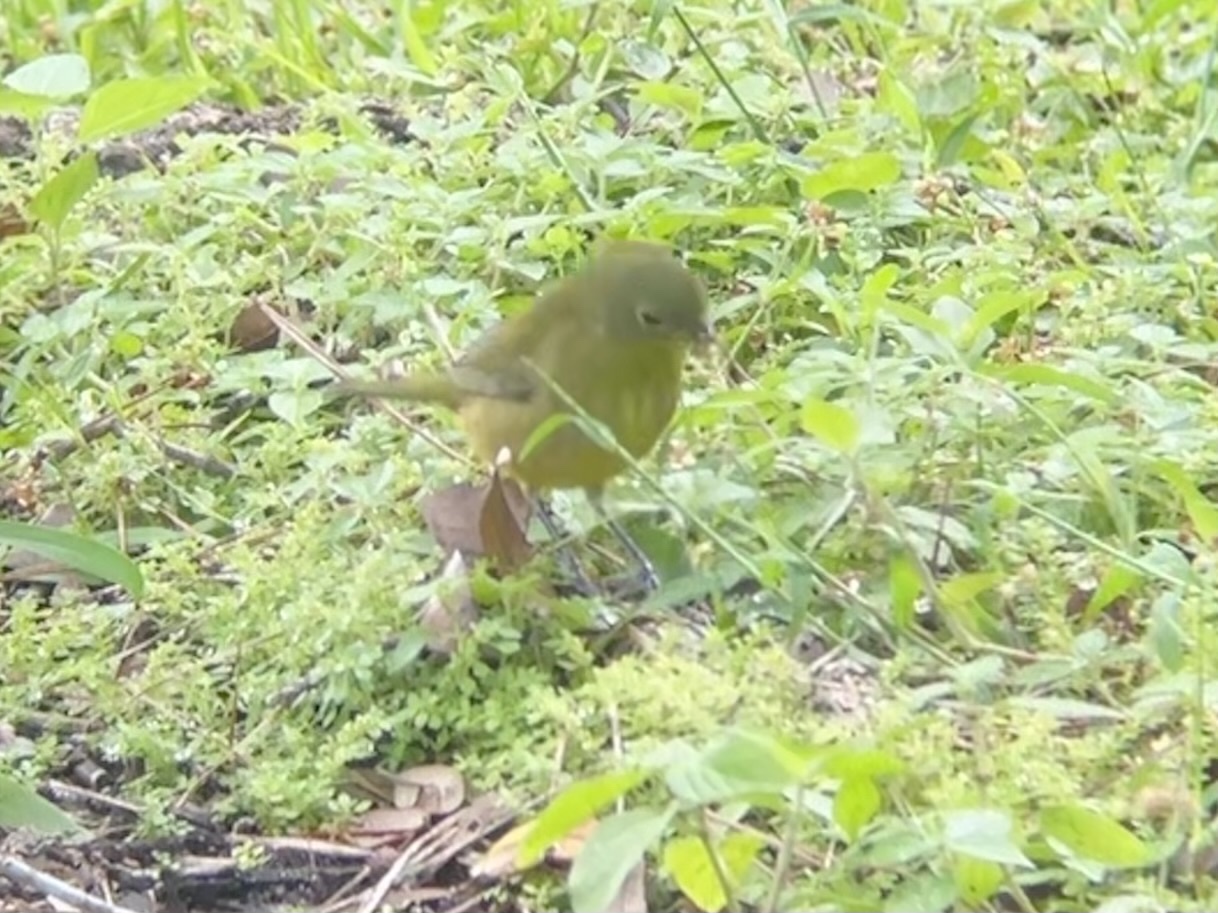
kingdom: Animalia
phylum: Chordata
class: Aves
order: Passeriformes
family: Cardinalidae
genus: Passerina
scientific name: Passerina ciris
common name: Painted bunting
